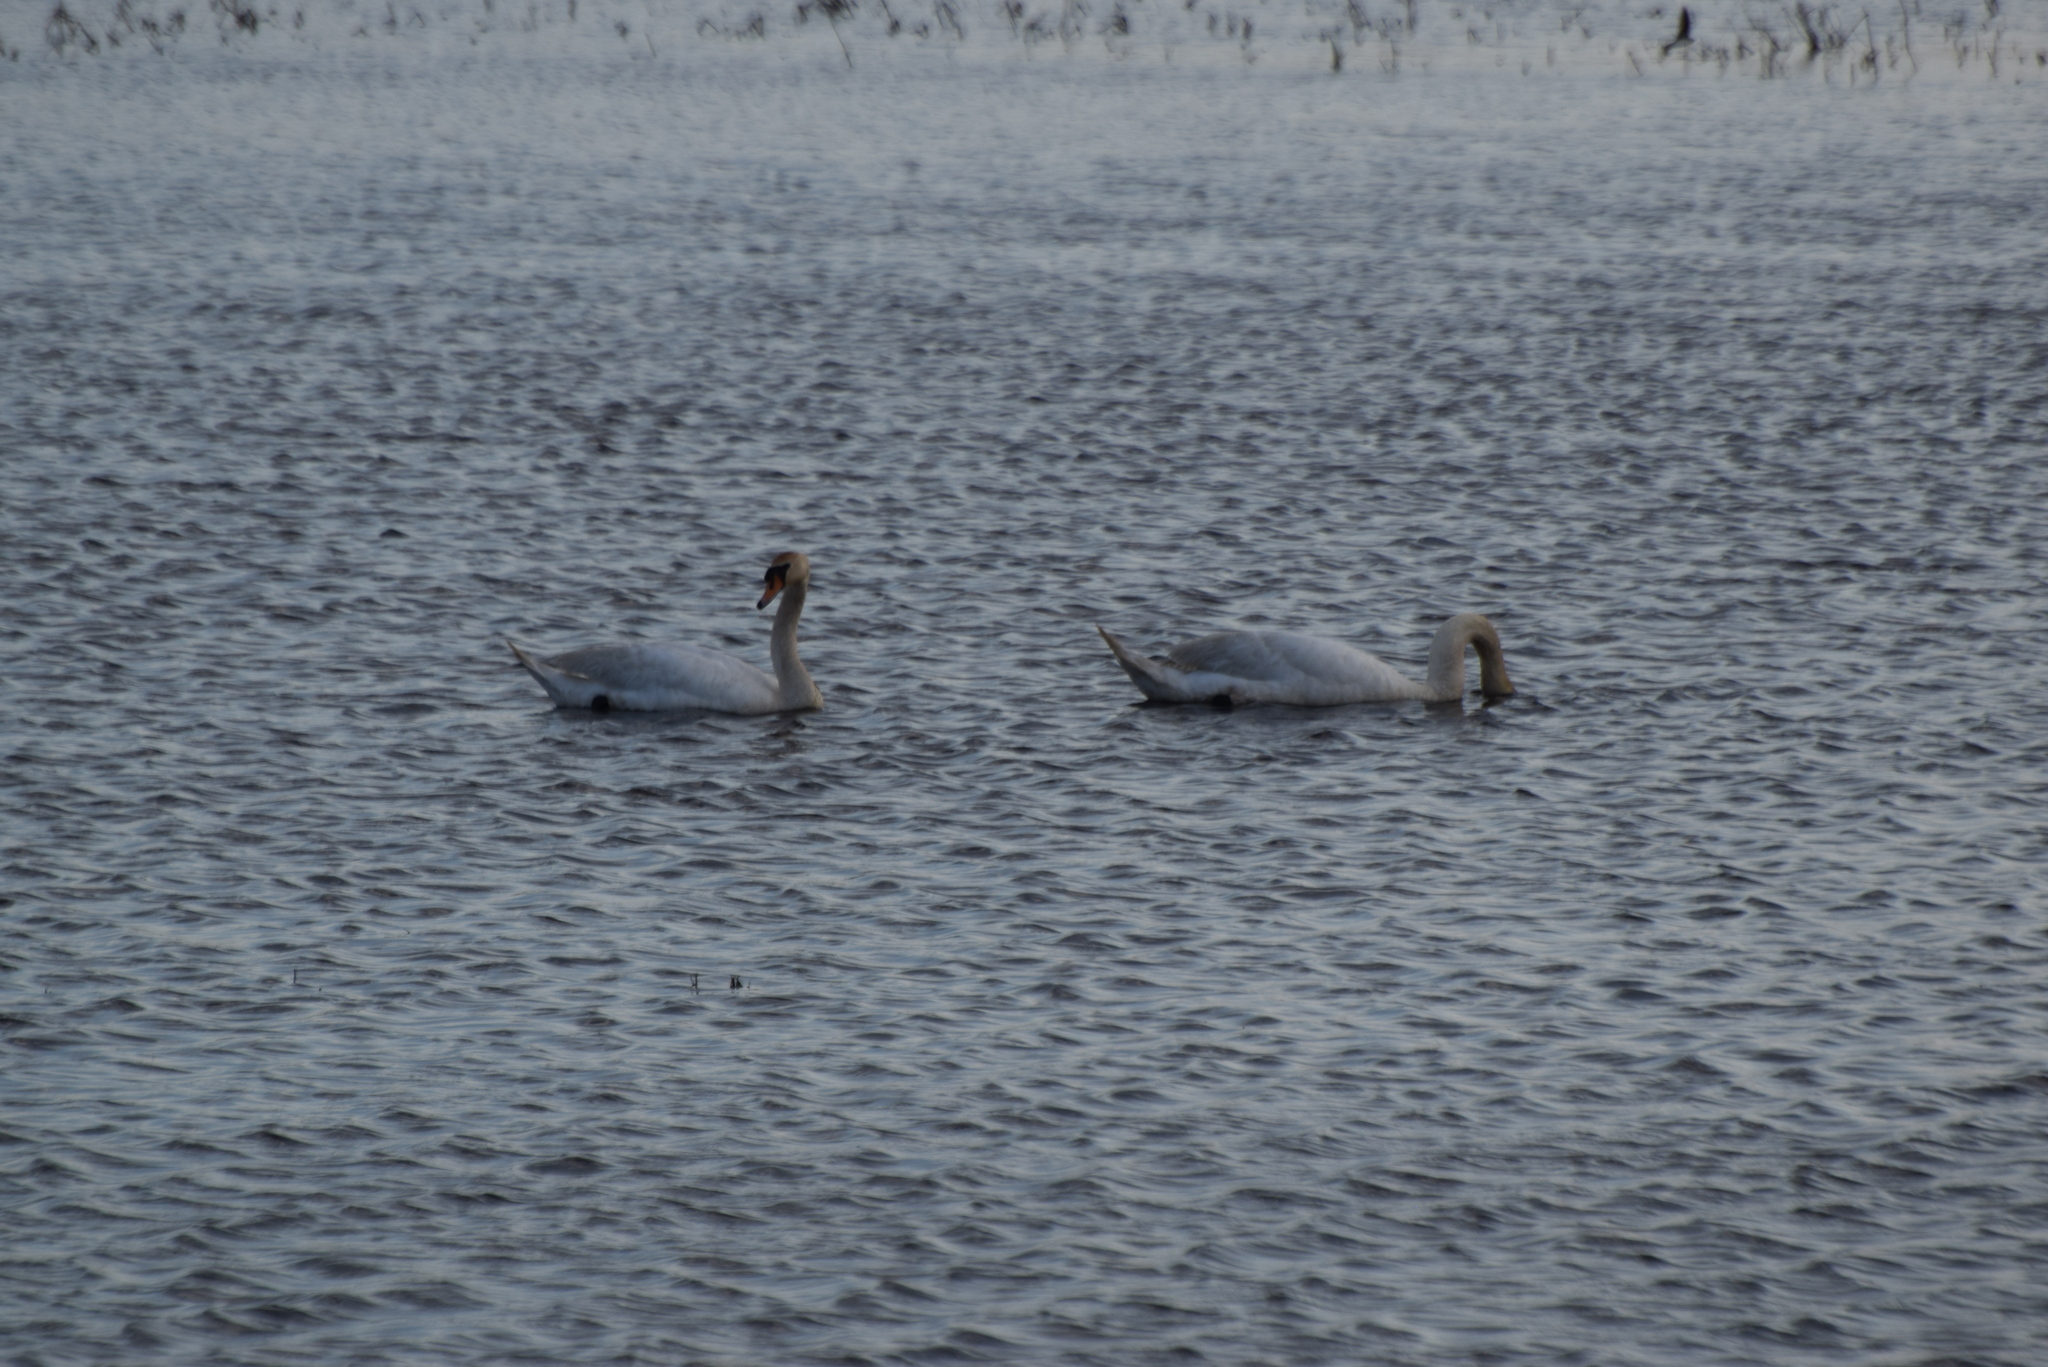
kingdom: Animalia
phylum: Chordata
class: Aves
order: Anseriformes
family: Anatidae
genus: Cygnus
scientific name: Cygnus olor
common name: Mute swan
